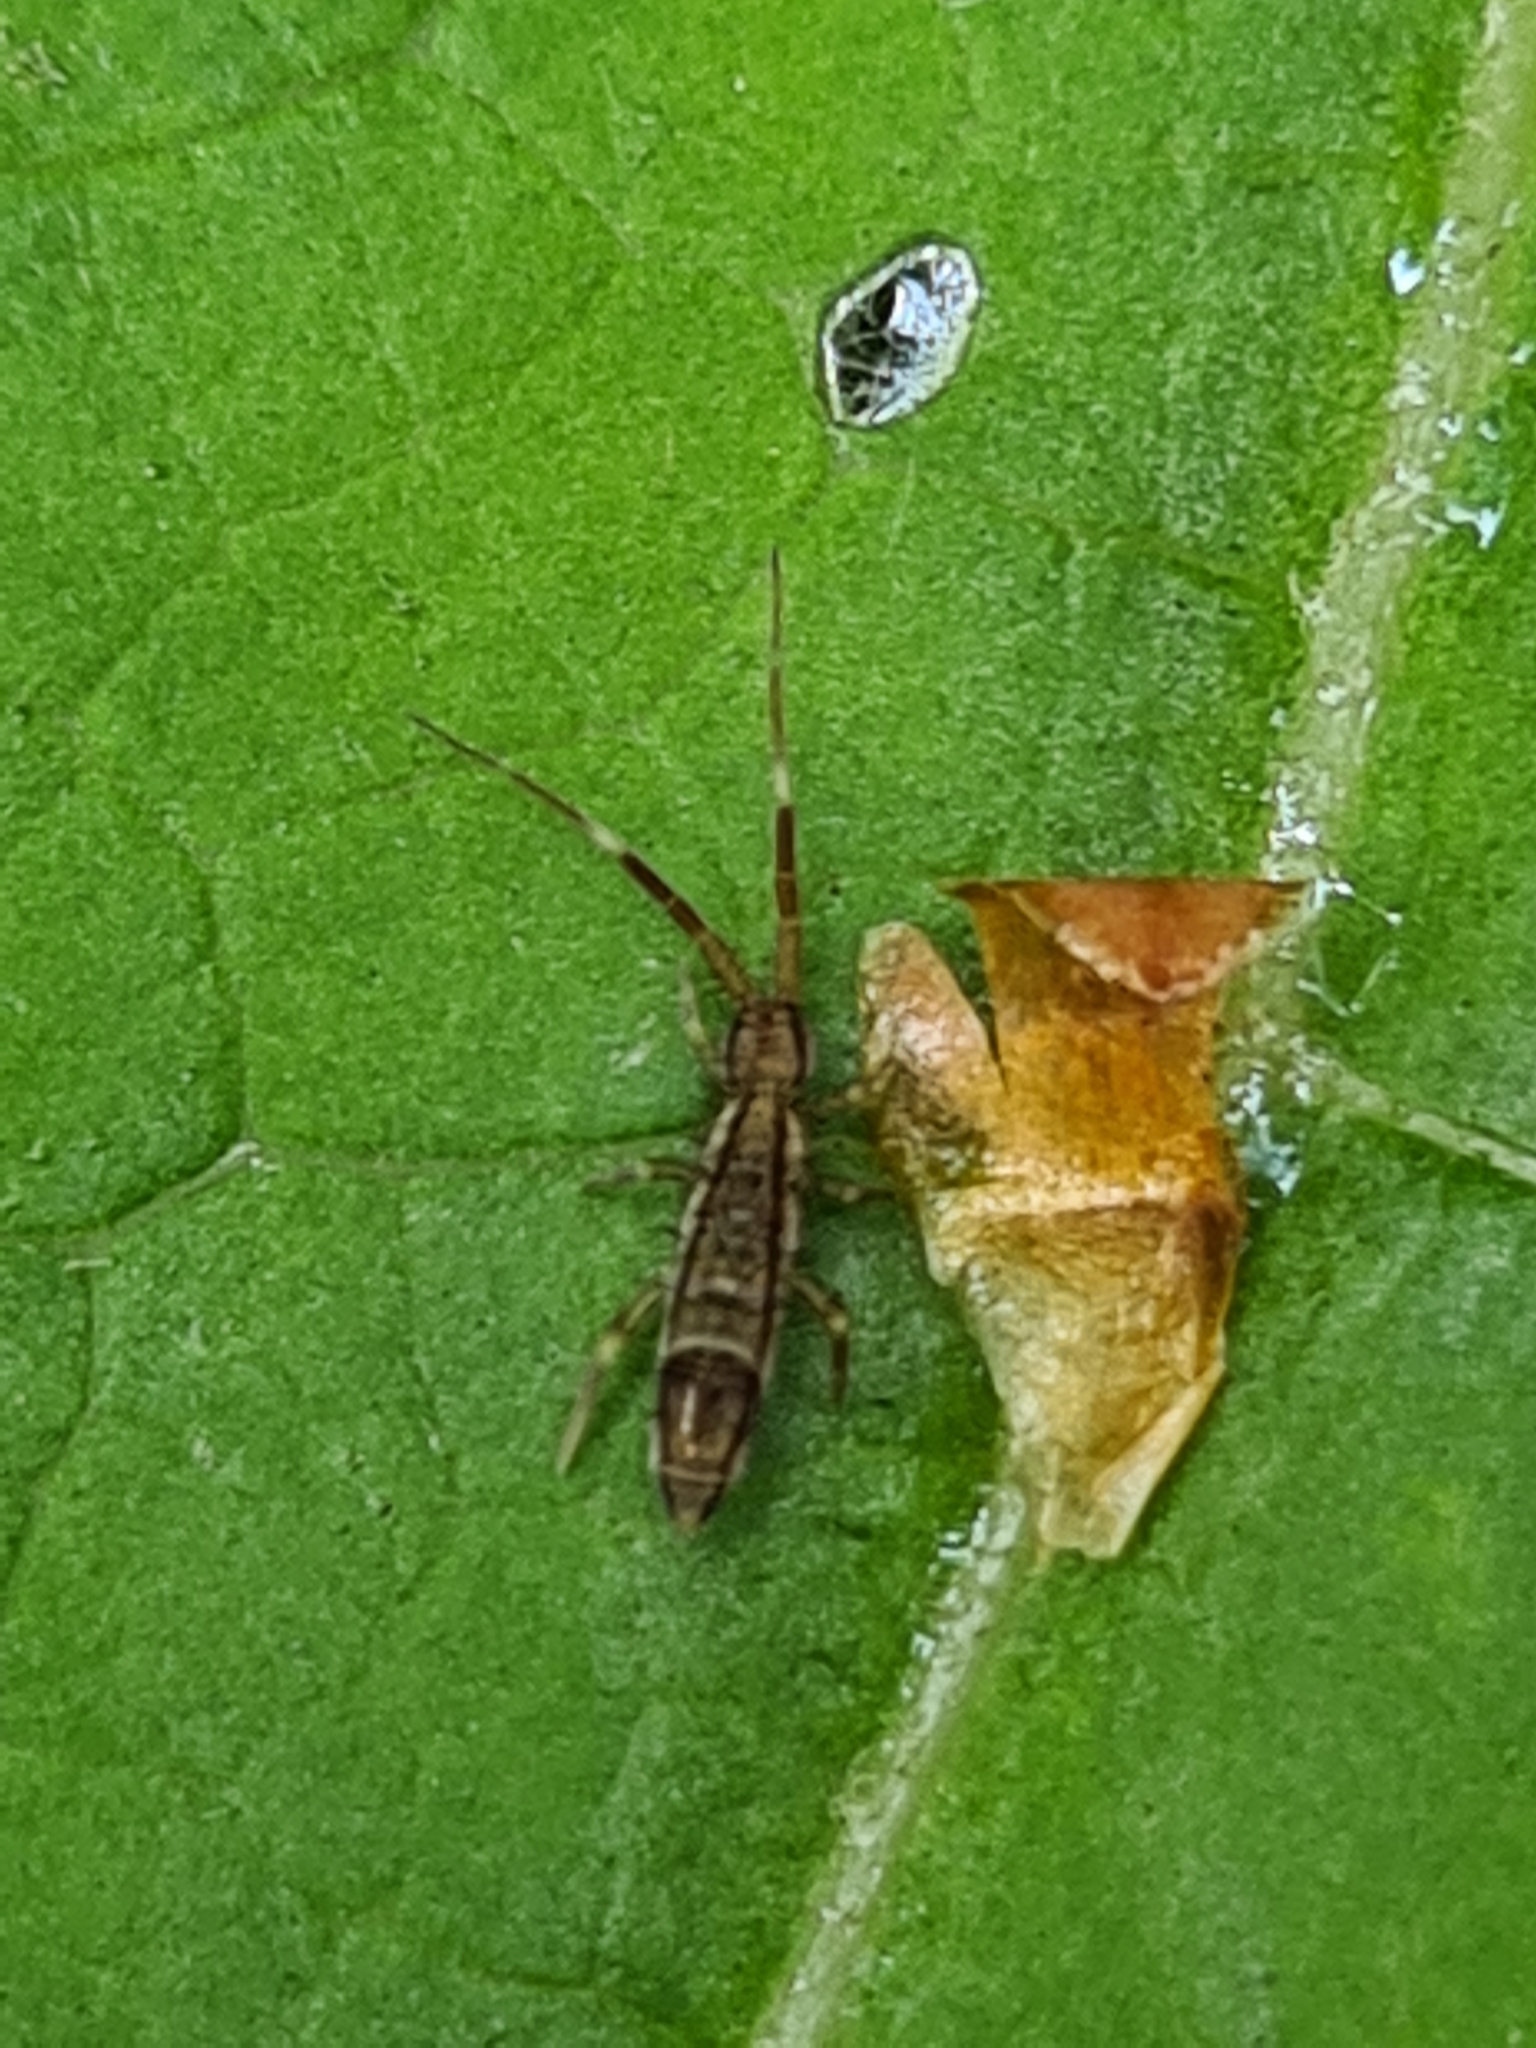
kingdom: Animalia
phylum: Arthropoda
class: Collembola
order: Entomobryomorpha
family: Entomobryidae
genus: Entomobrya
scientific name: Entomobrya nivalis
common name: Cosmopolitan springtail
